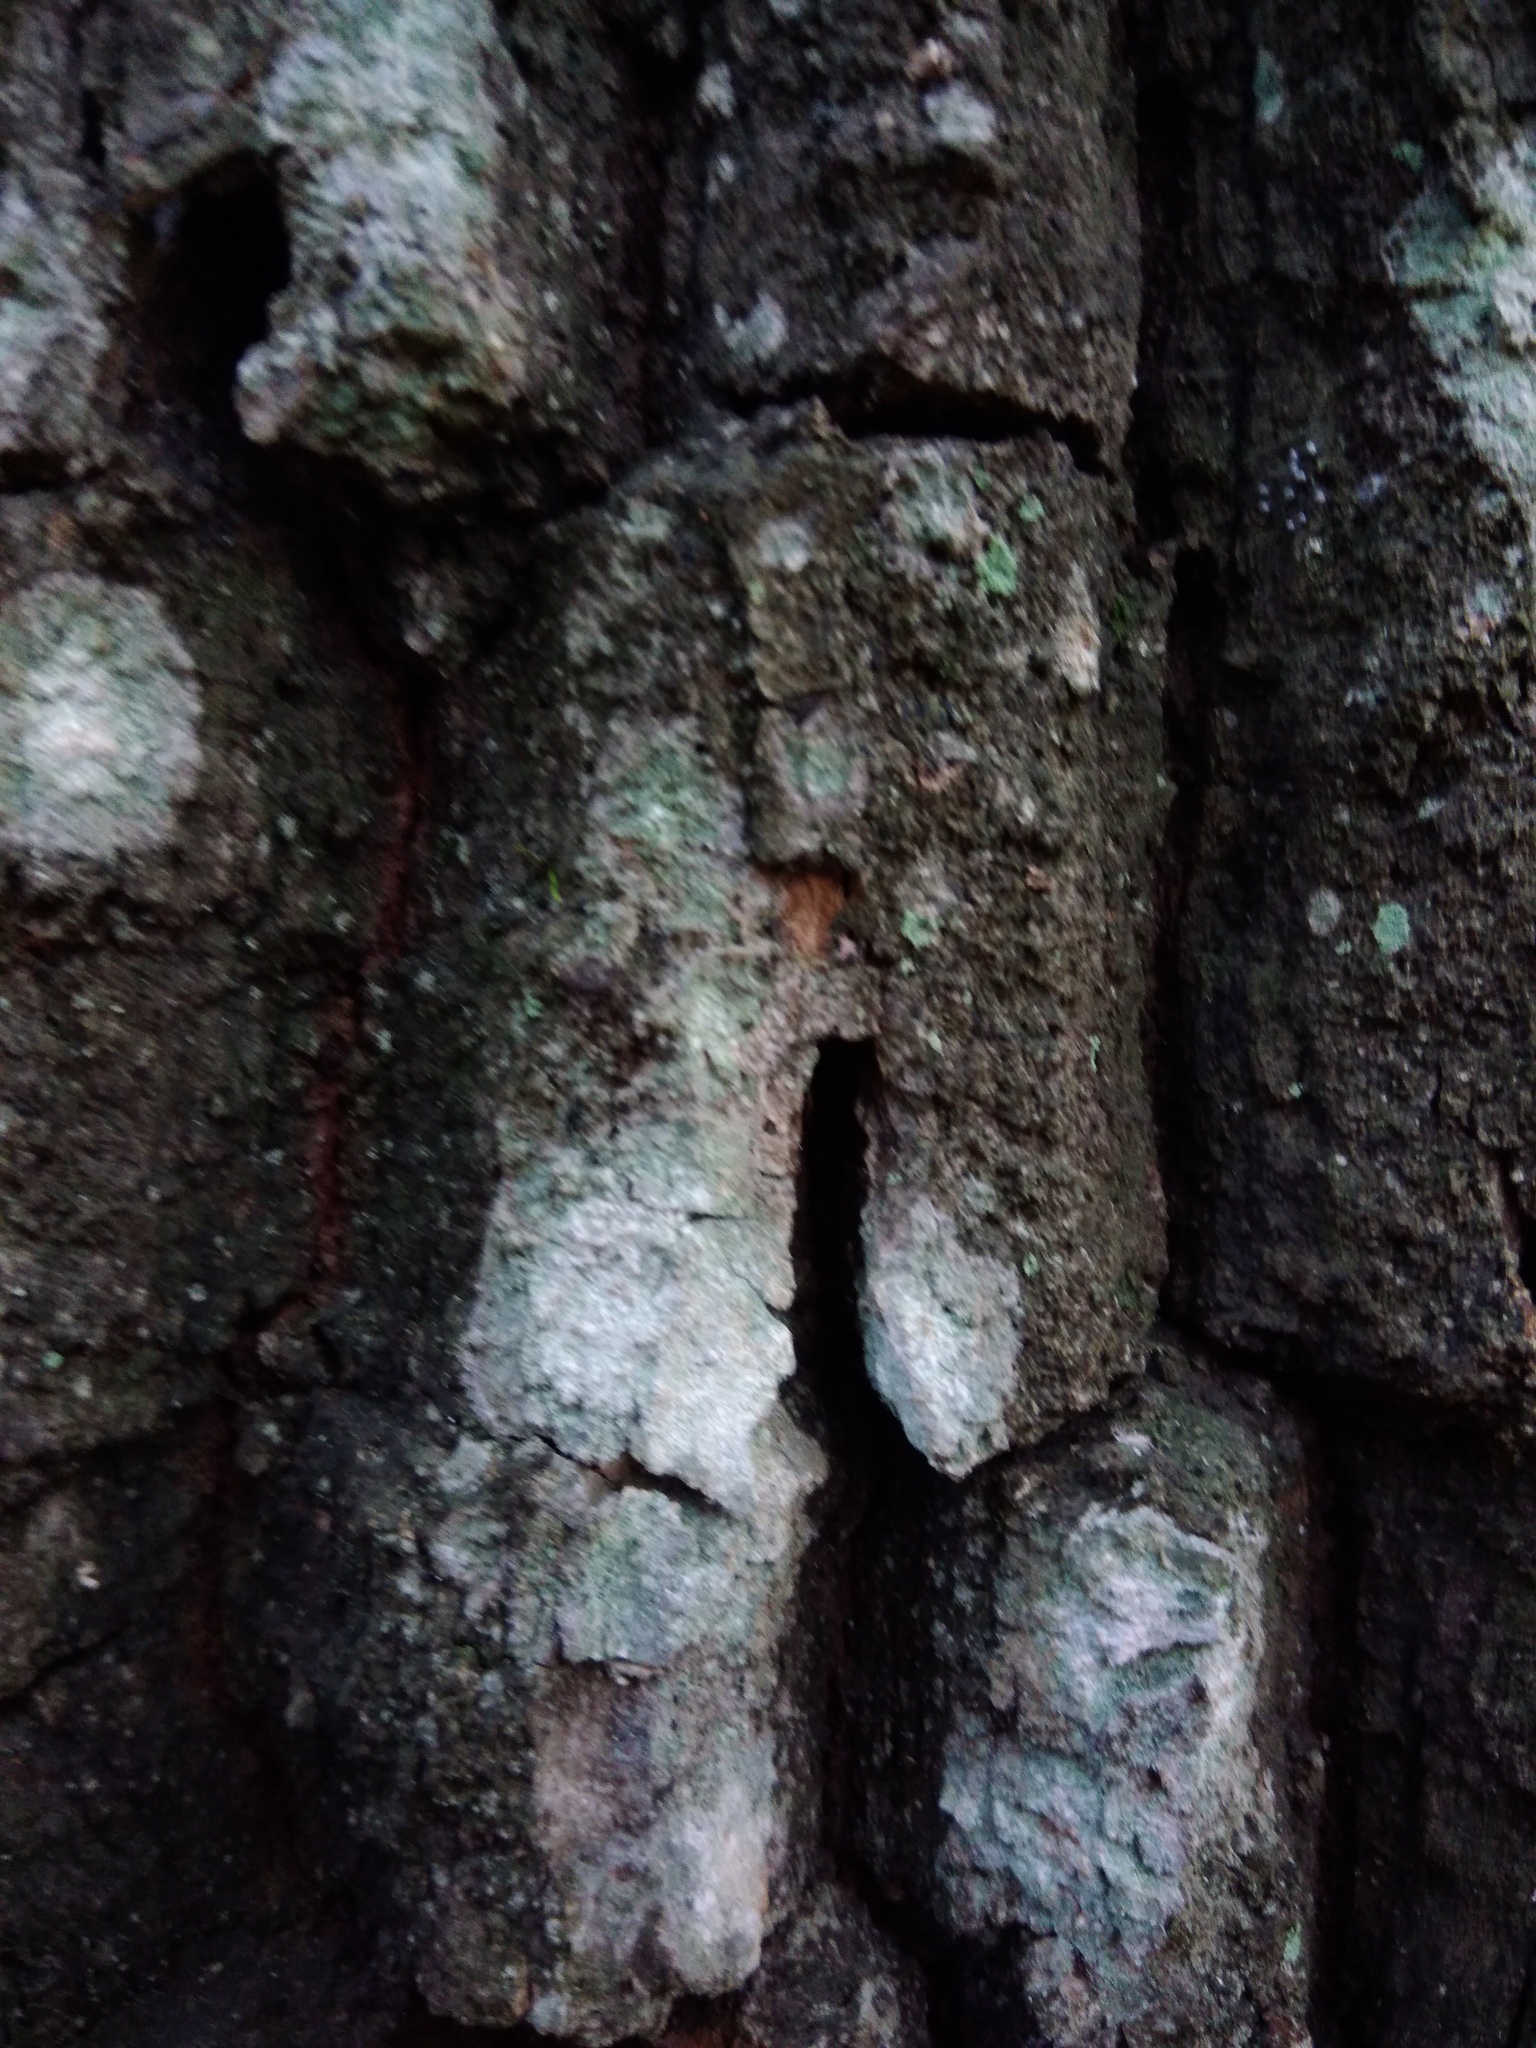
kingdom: Fungi
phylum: Ascomycota
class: Lecanoromycetes
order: Ostropales
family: Phlyctidaceae
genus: Phlyctis
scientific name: Phlyctis argena
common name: Whitewash lichen
